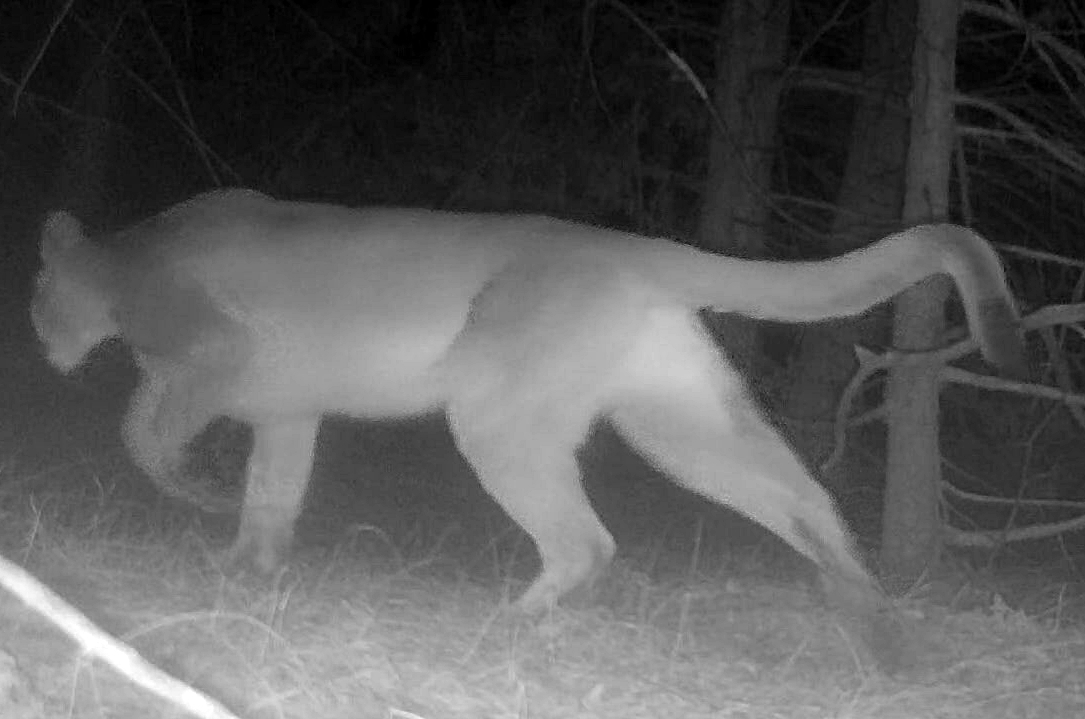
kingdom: Animalia
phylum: Chordata
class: Mammalia
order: Carnivora
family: Felidae
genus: Puma
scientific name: Puma concolor
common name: Puma
